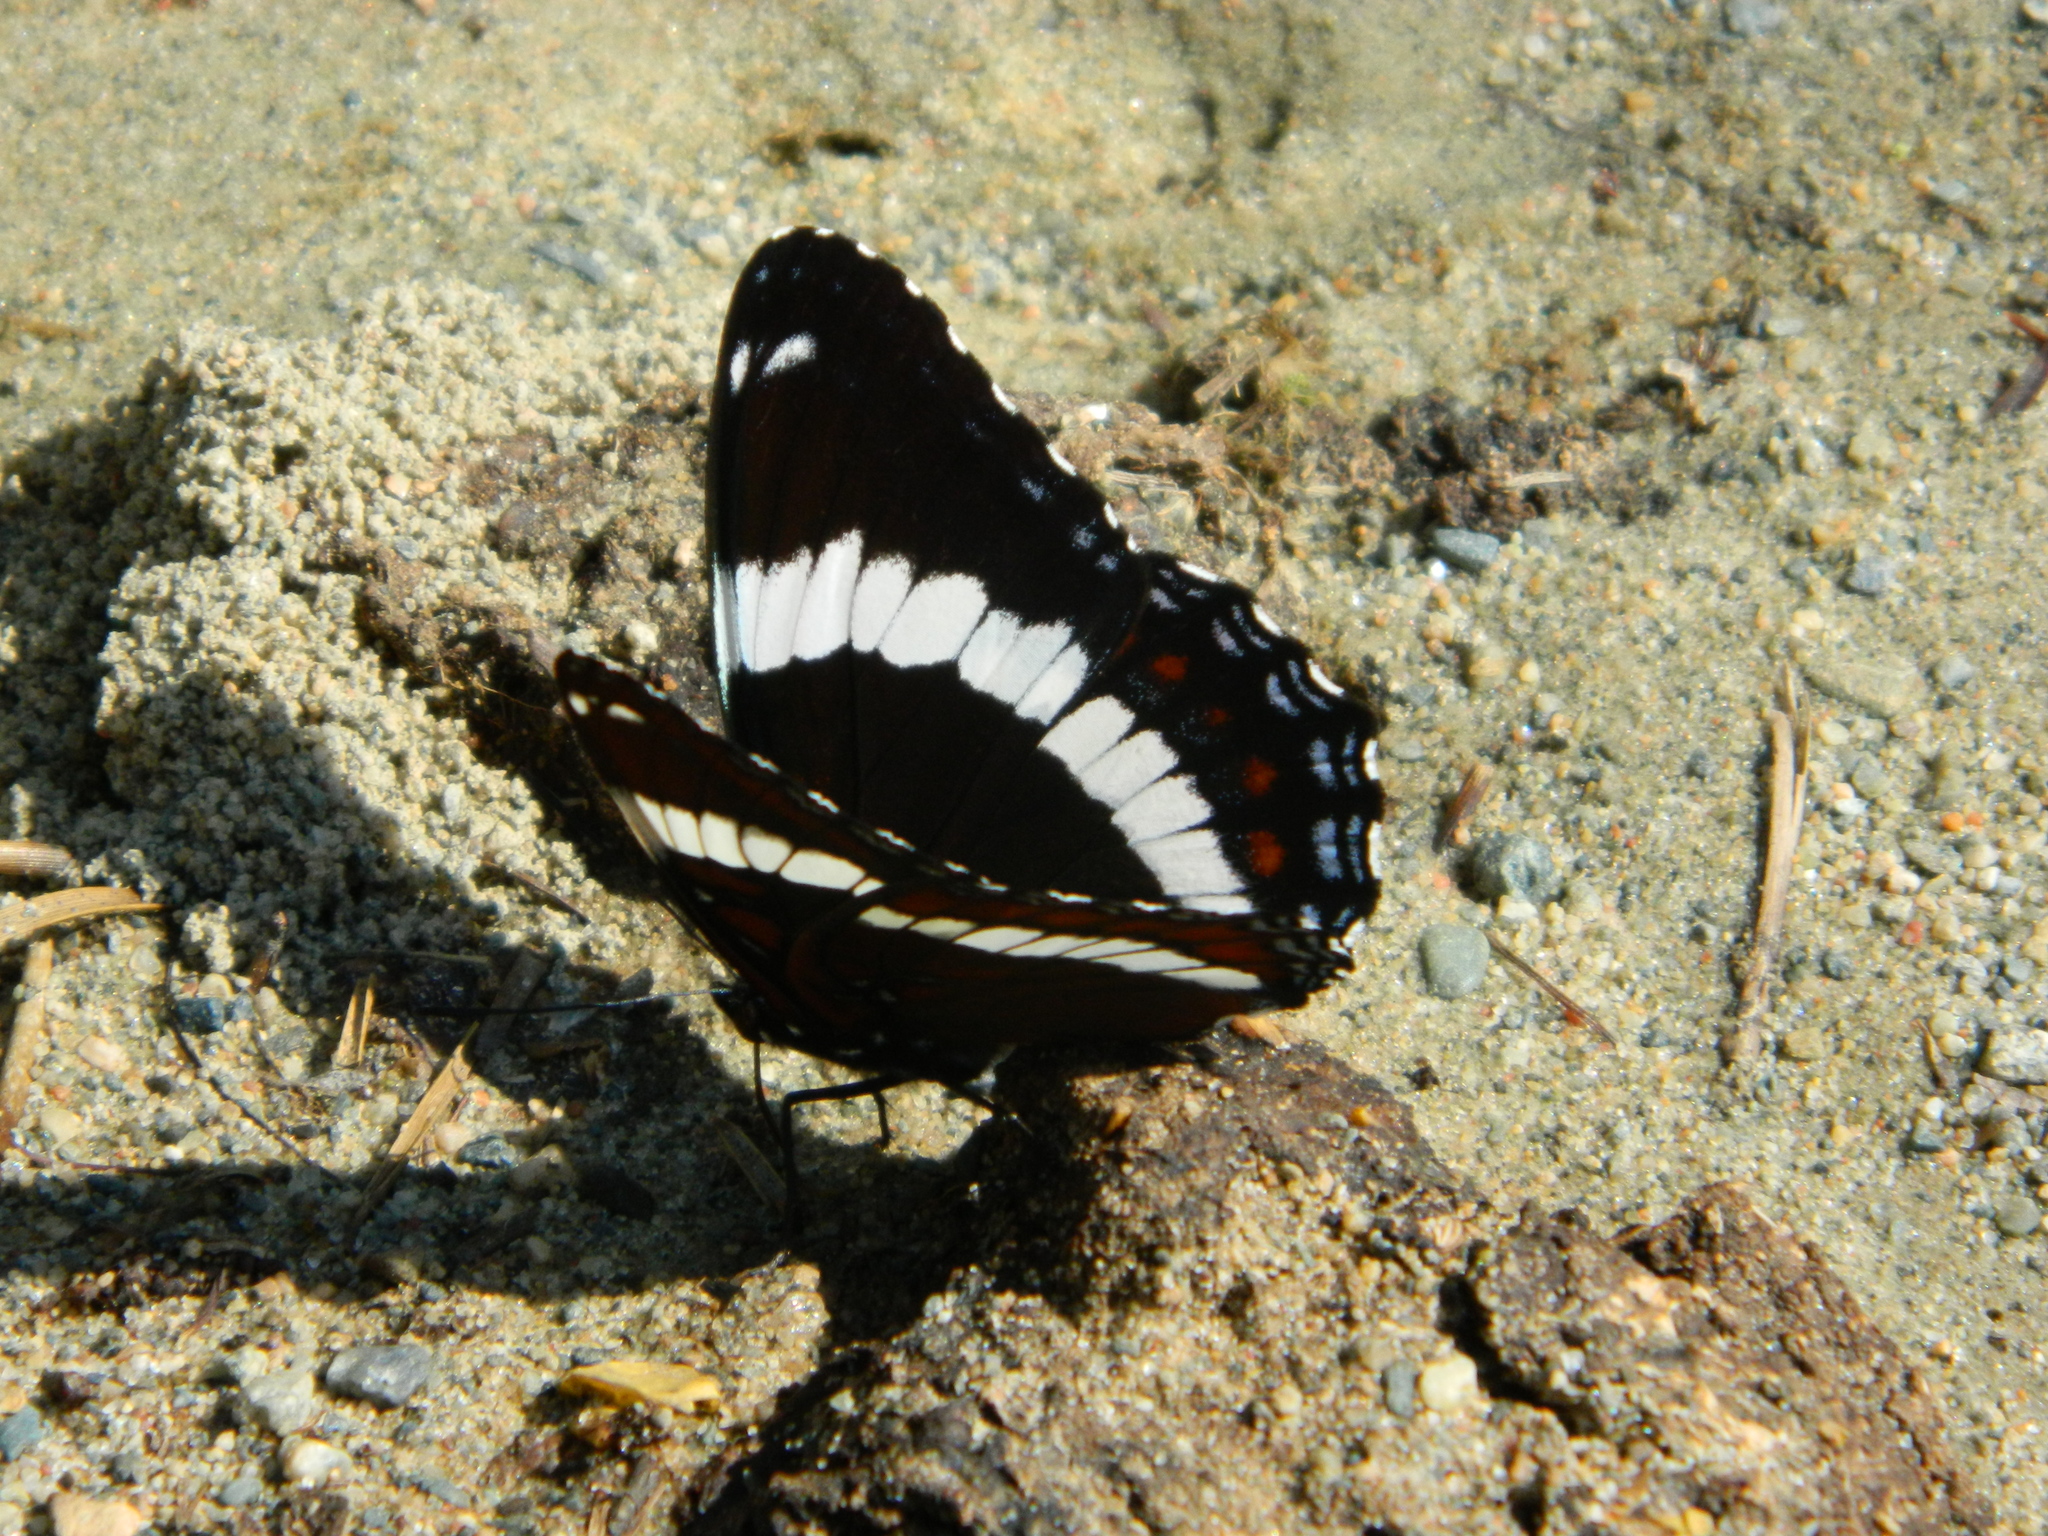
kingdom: Animalia
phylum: Arthropoda
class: Insecta
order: Lepidoptera
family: Nymphalidae
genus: Limenitis
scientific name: Limenitis arthemis
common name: Red-spotted admiral
